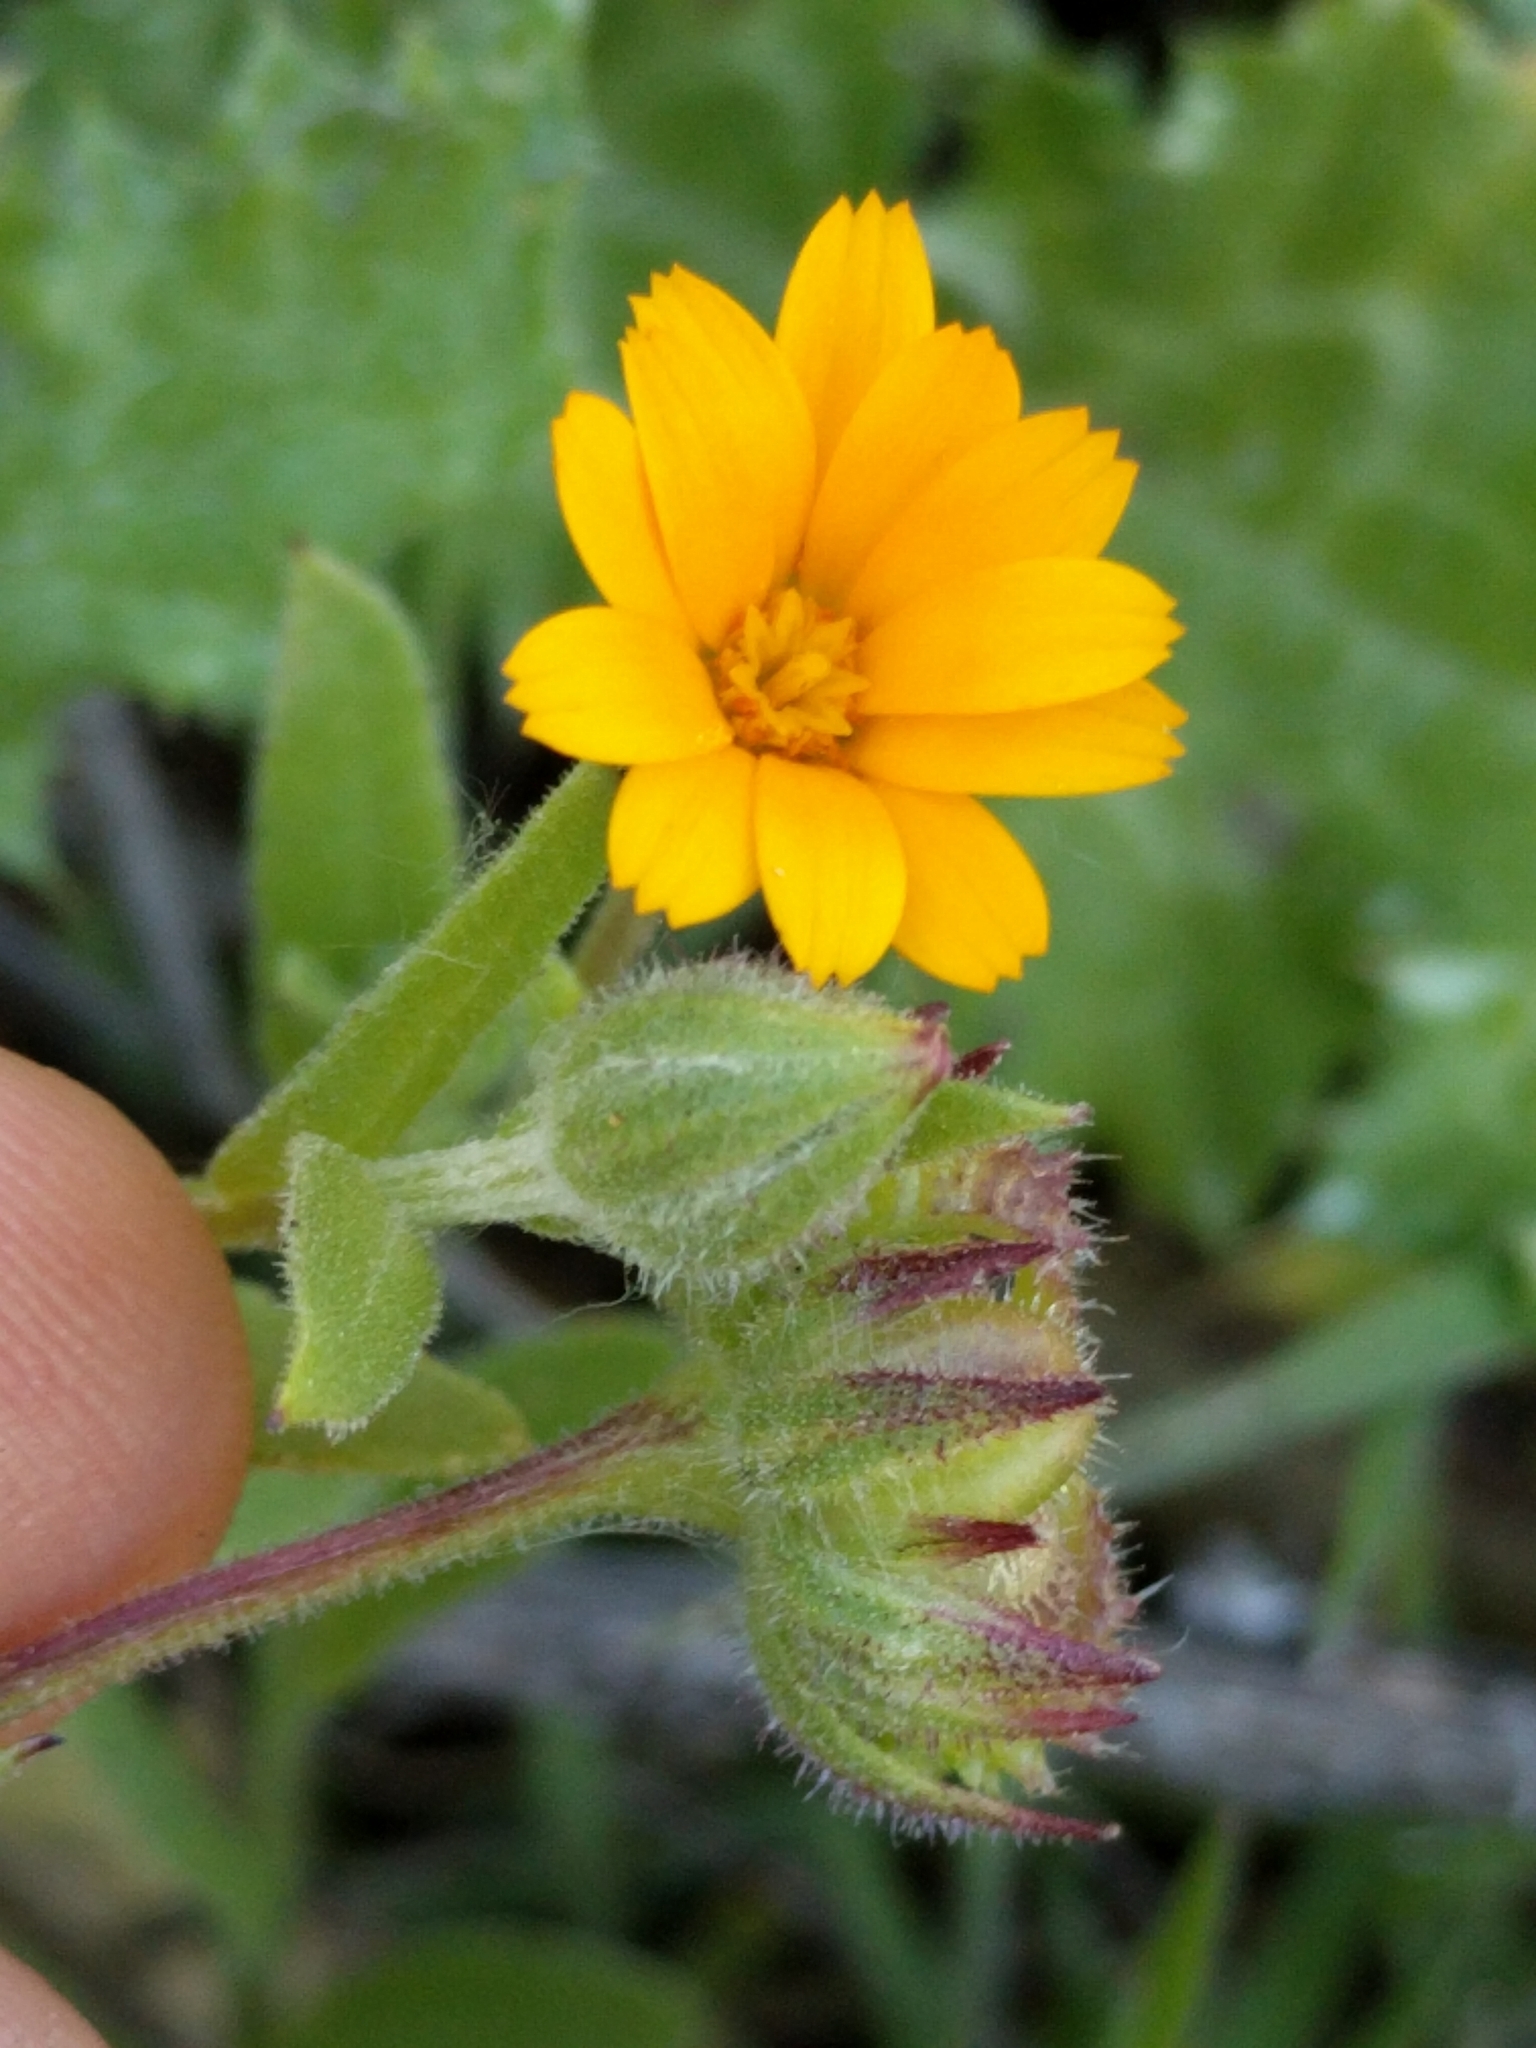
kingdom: Plantae
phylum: Tracheophyta
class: Magnoliopsida
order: Asterales
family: Asteraceae
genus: Calendula
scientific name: Calendula arvensis
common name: Field marigold
